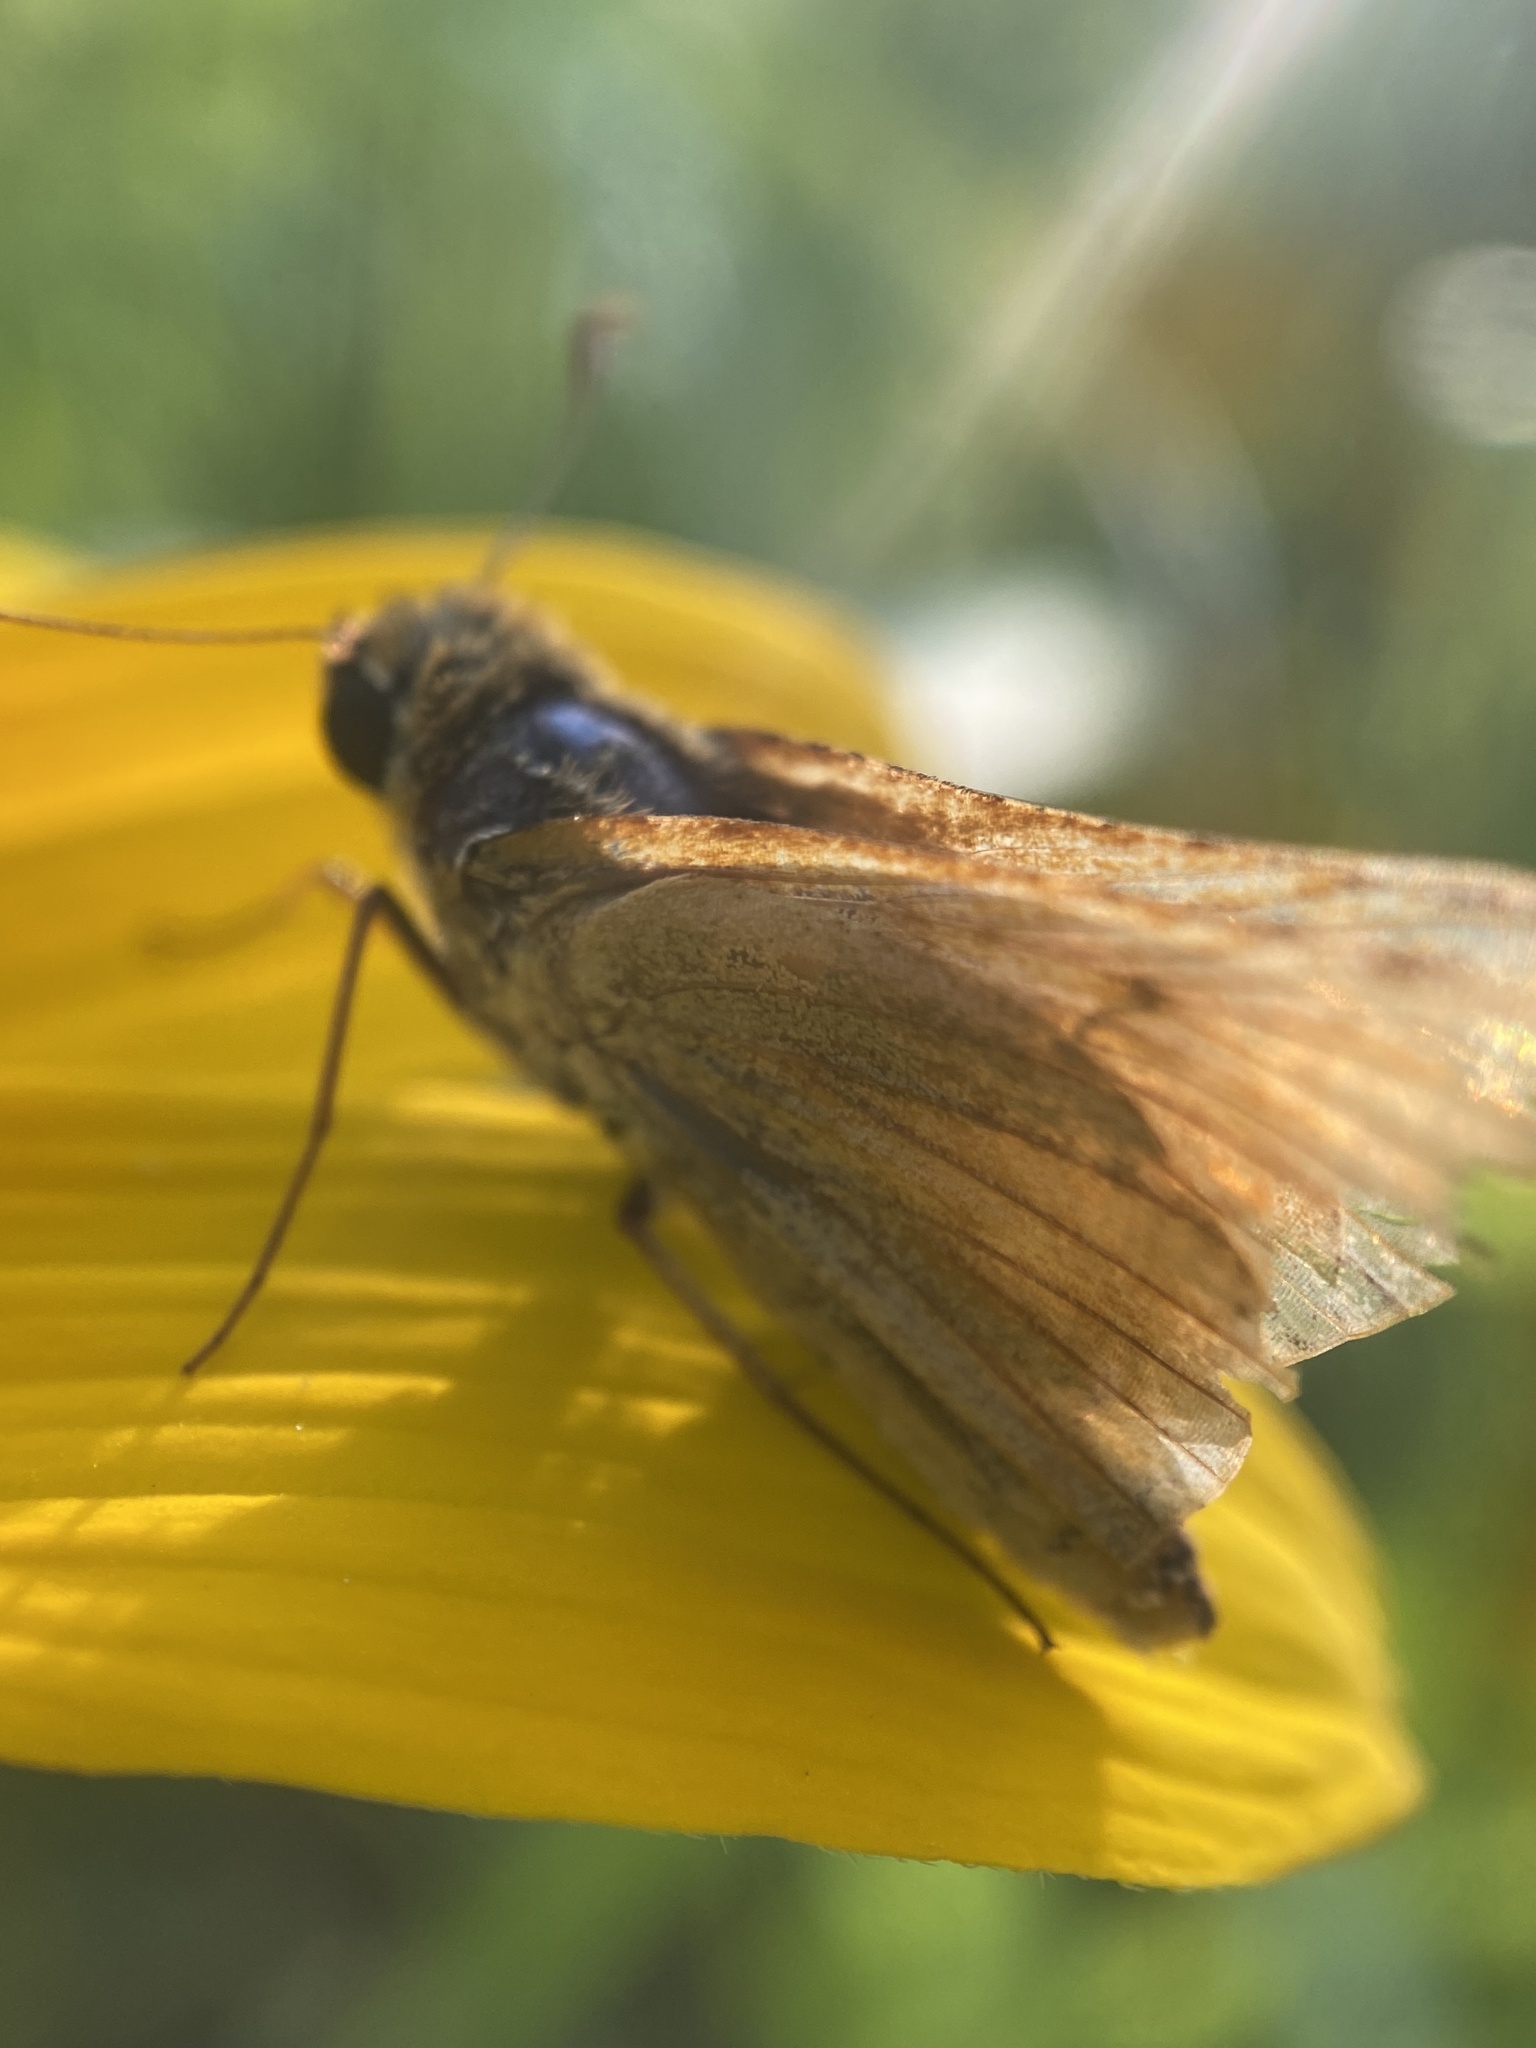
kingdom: Animalia
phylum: Arthropoda
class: Insecta
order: Lepidoptera
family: Hesperiidae
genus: Atrytone
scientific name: Atrytone delaware
